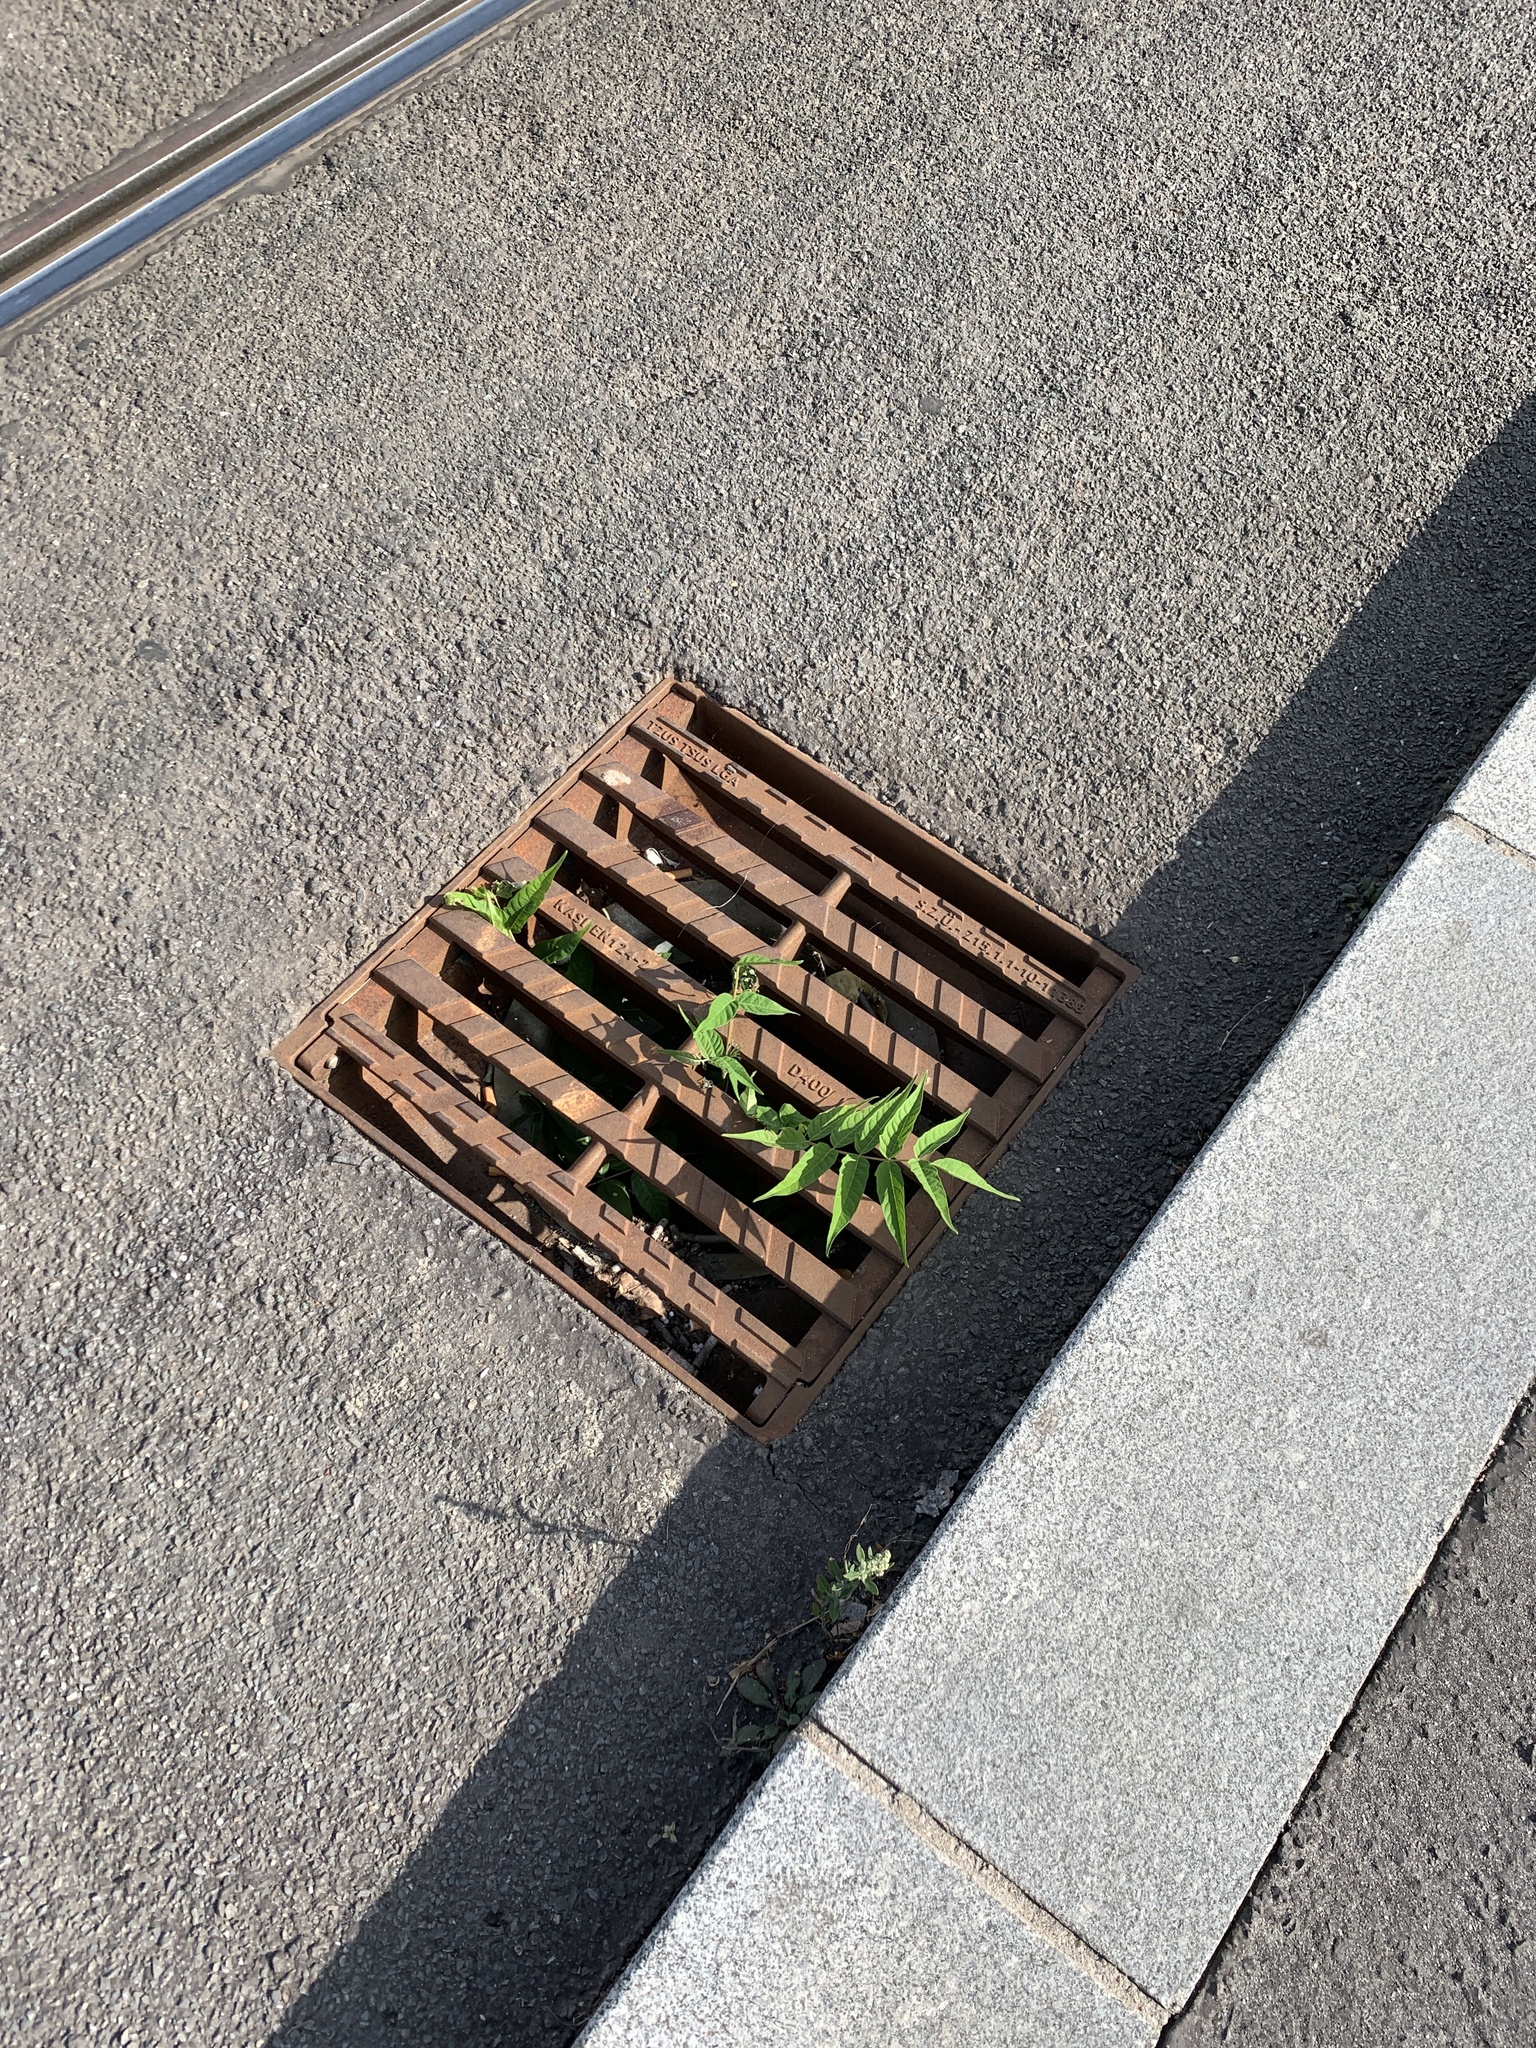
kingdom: Plantae
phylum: Tracheophyta
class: Magnoliopsida
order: Sapindales
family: Simaroubaceae
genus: Ailanthus
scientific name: Ailanthus altissima
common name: Tree-of-heaven
